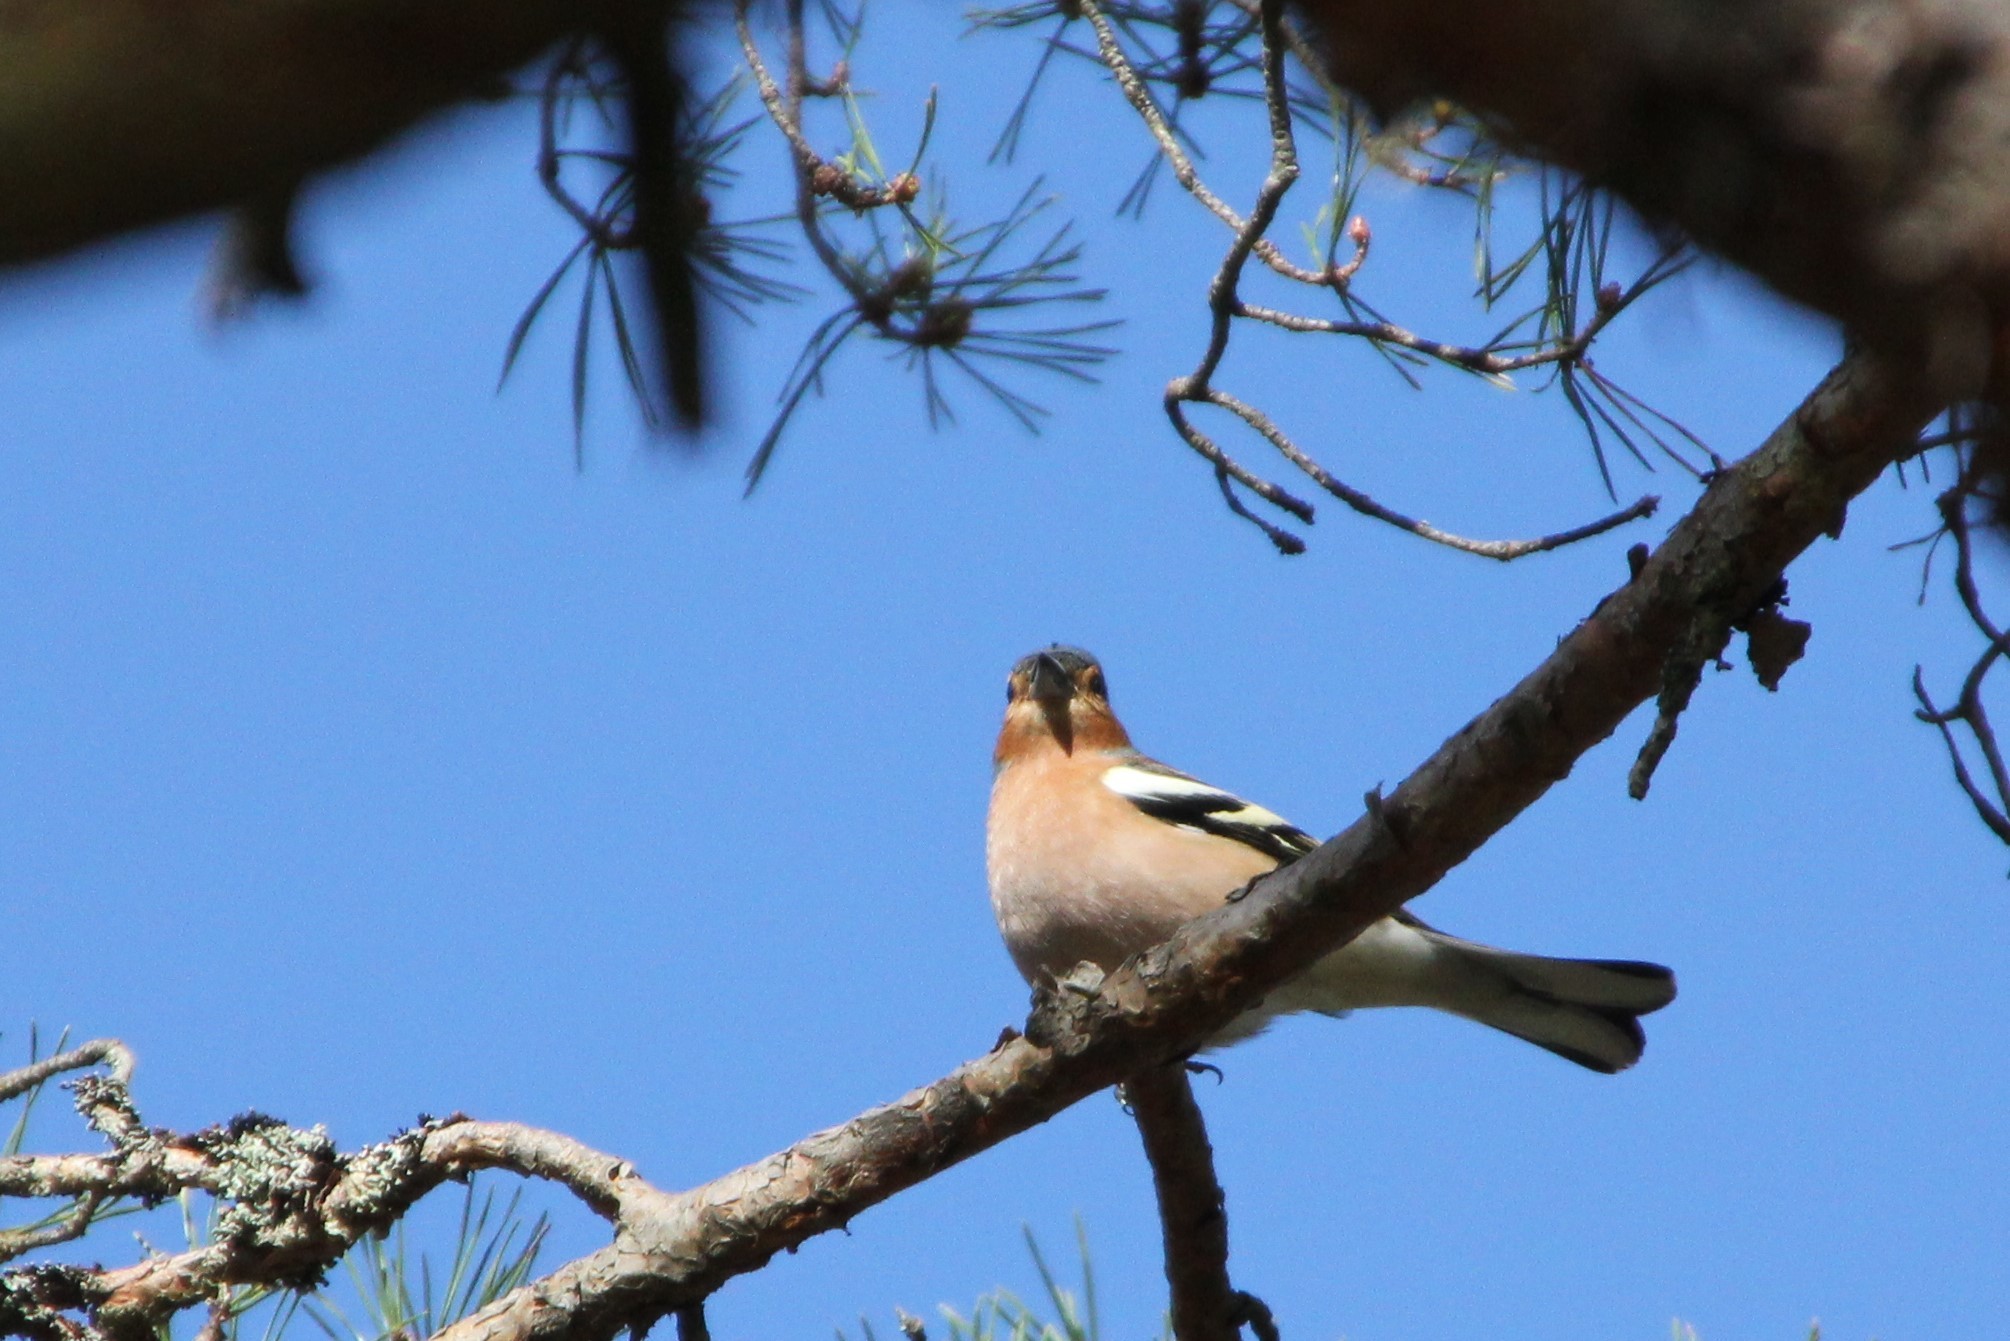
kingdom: Animalia
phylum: Chordata
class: Aves
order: Passeriformes
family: Fringillidae
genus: Fringilla
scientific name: Fringilla coelebs
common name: Common chaffinch
